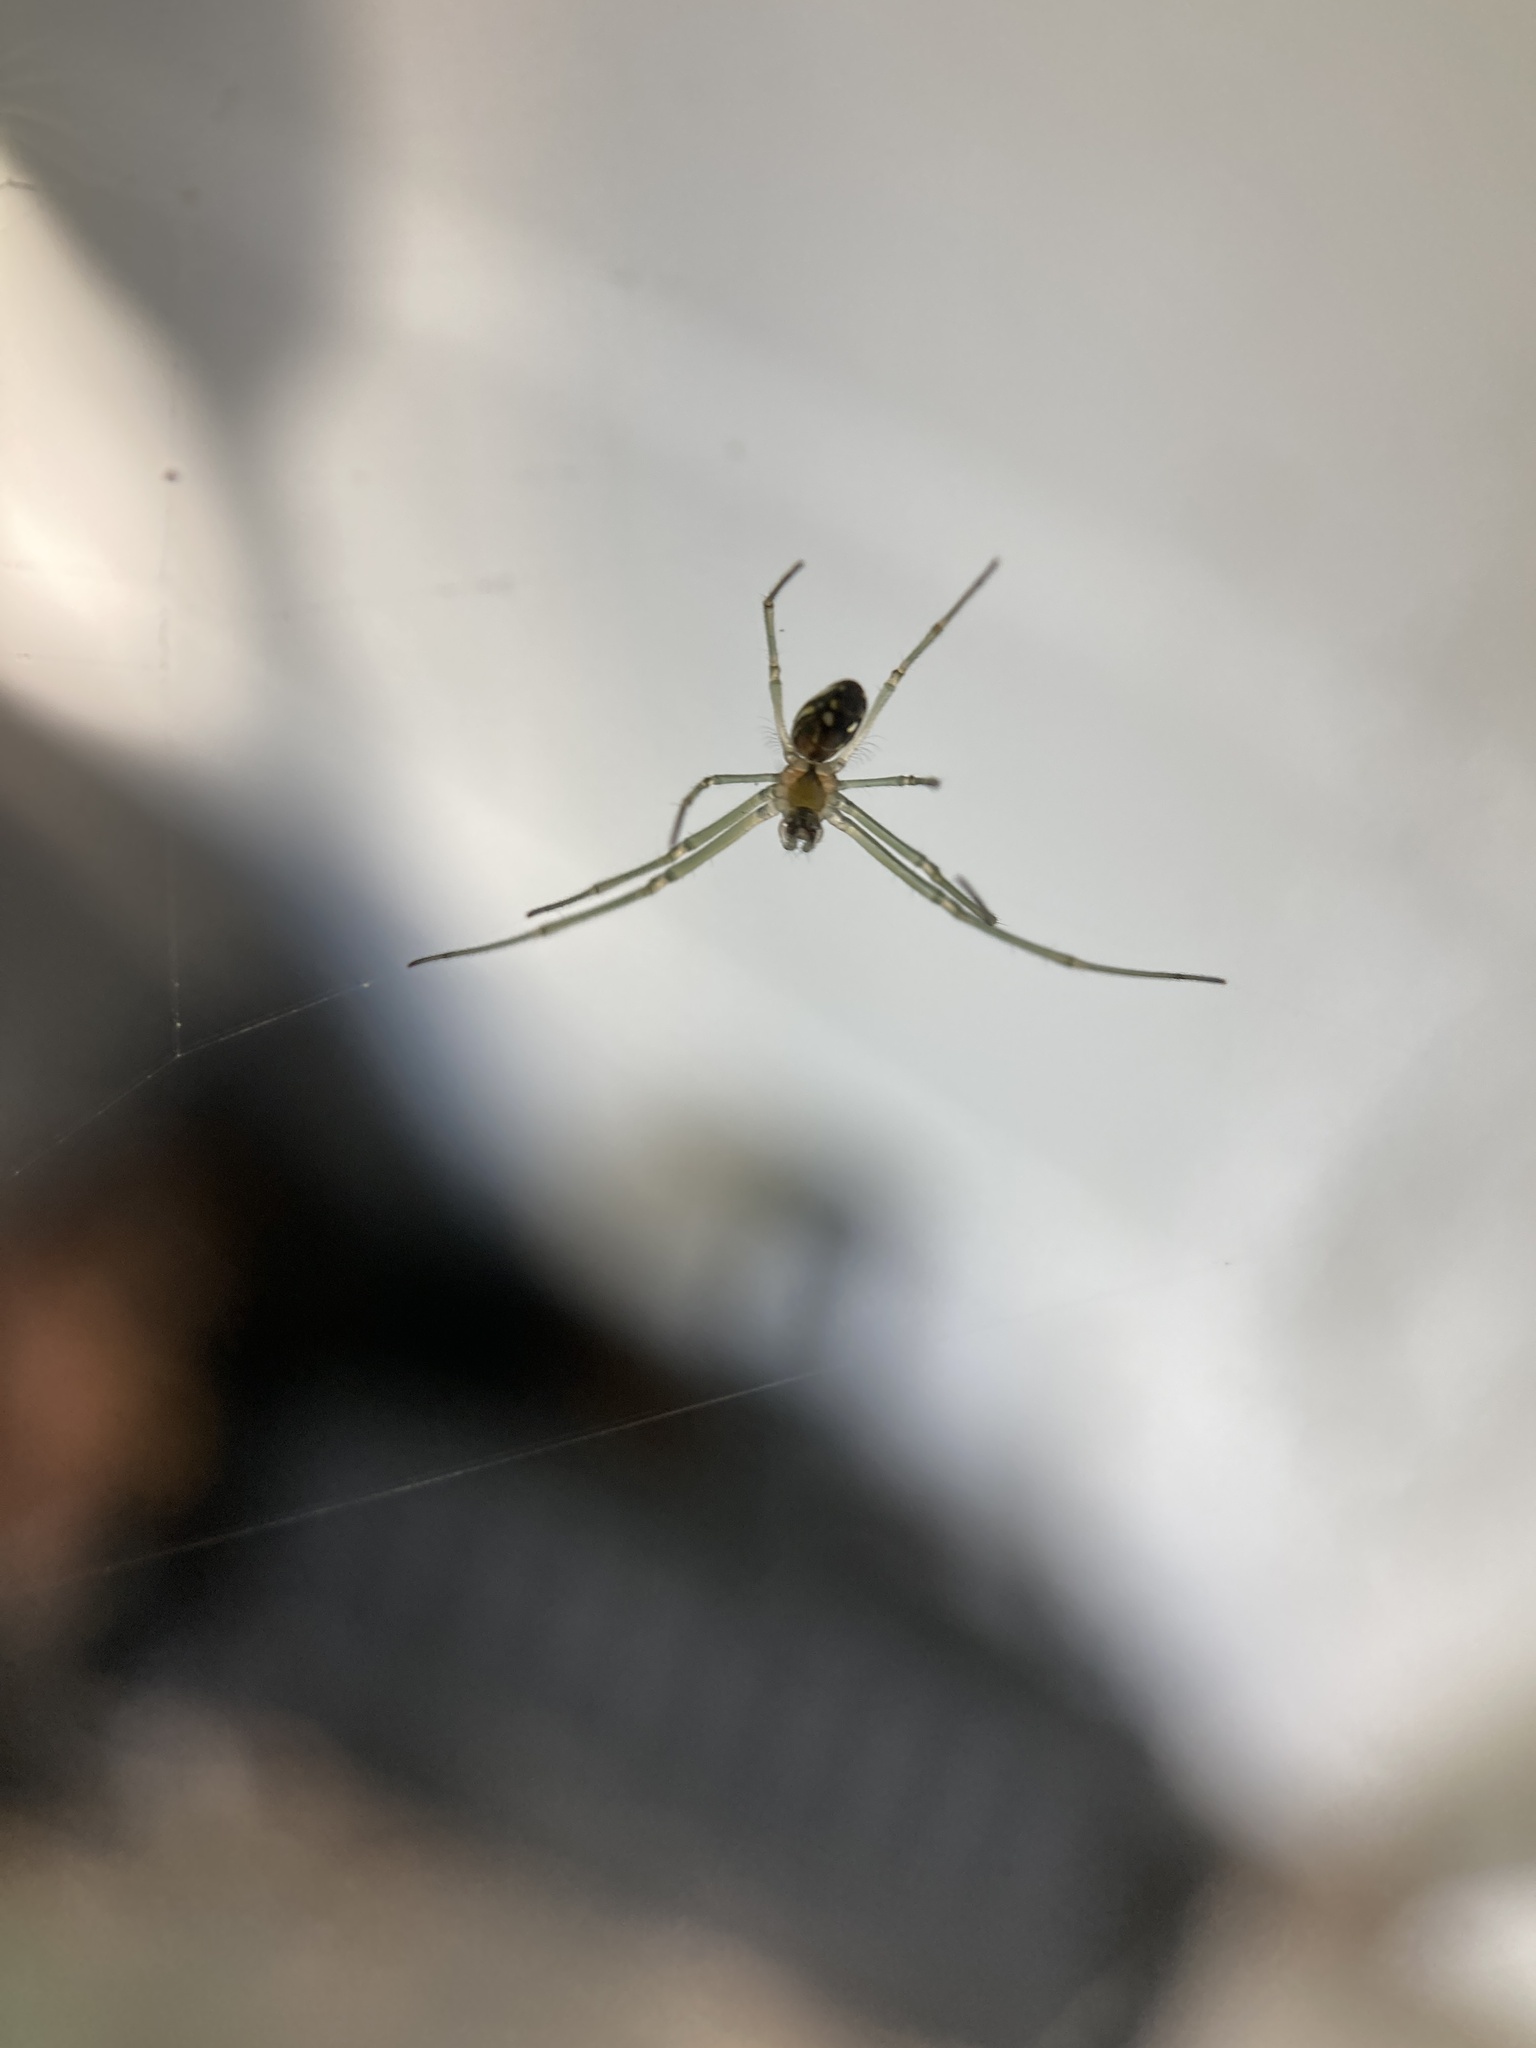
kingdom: Animalia
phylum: Arthropoda
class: Arachnida
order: Araneae
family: Tetragnathidae
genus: Leucauge
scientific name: Leucauge argyra
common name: Longjawed orb weavers
